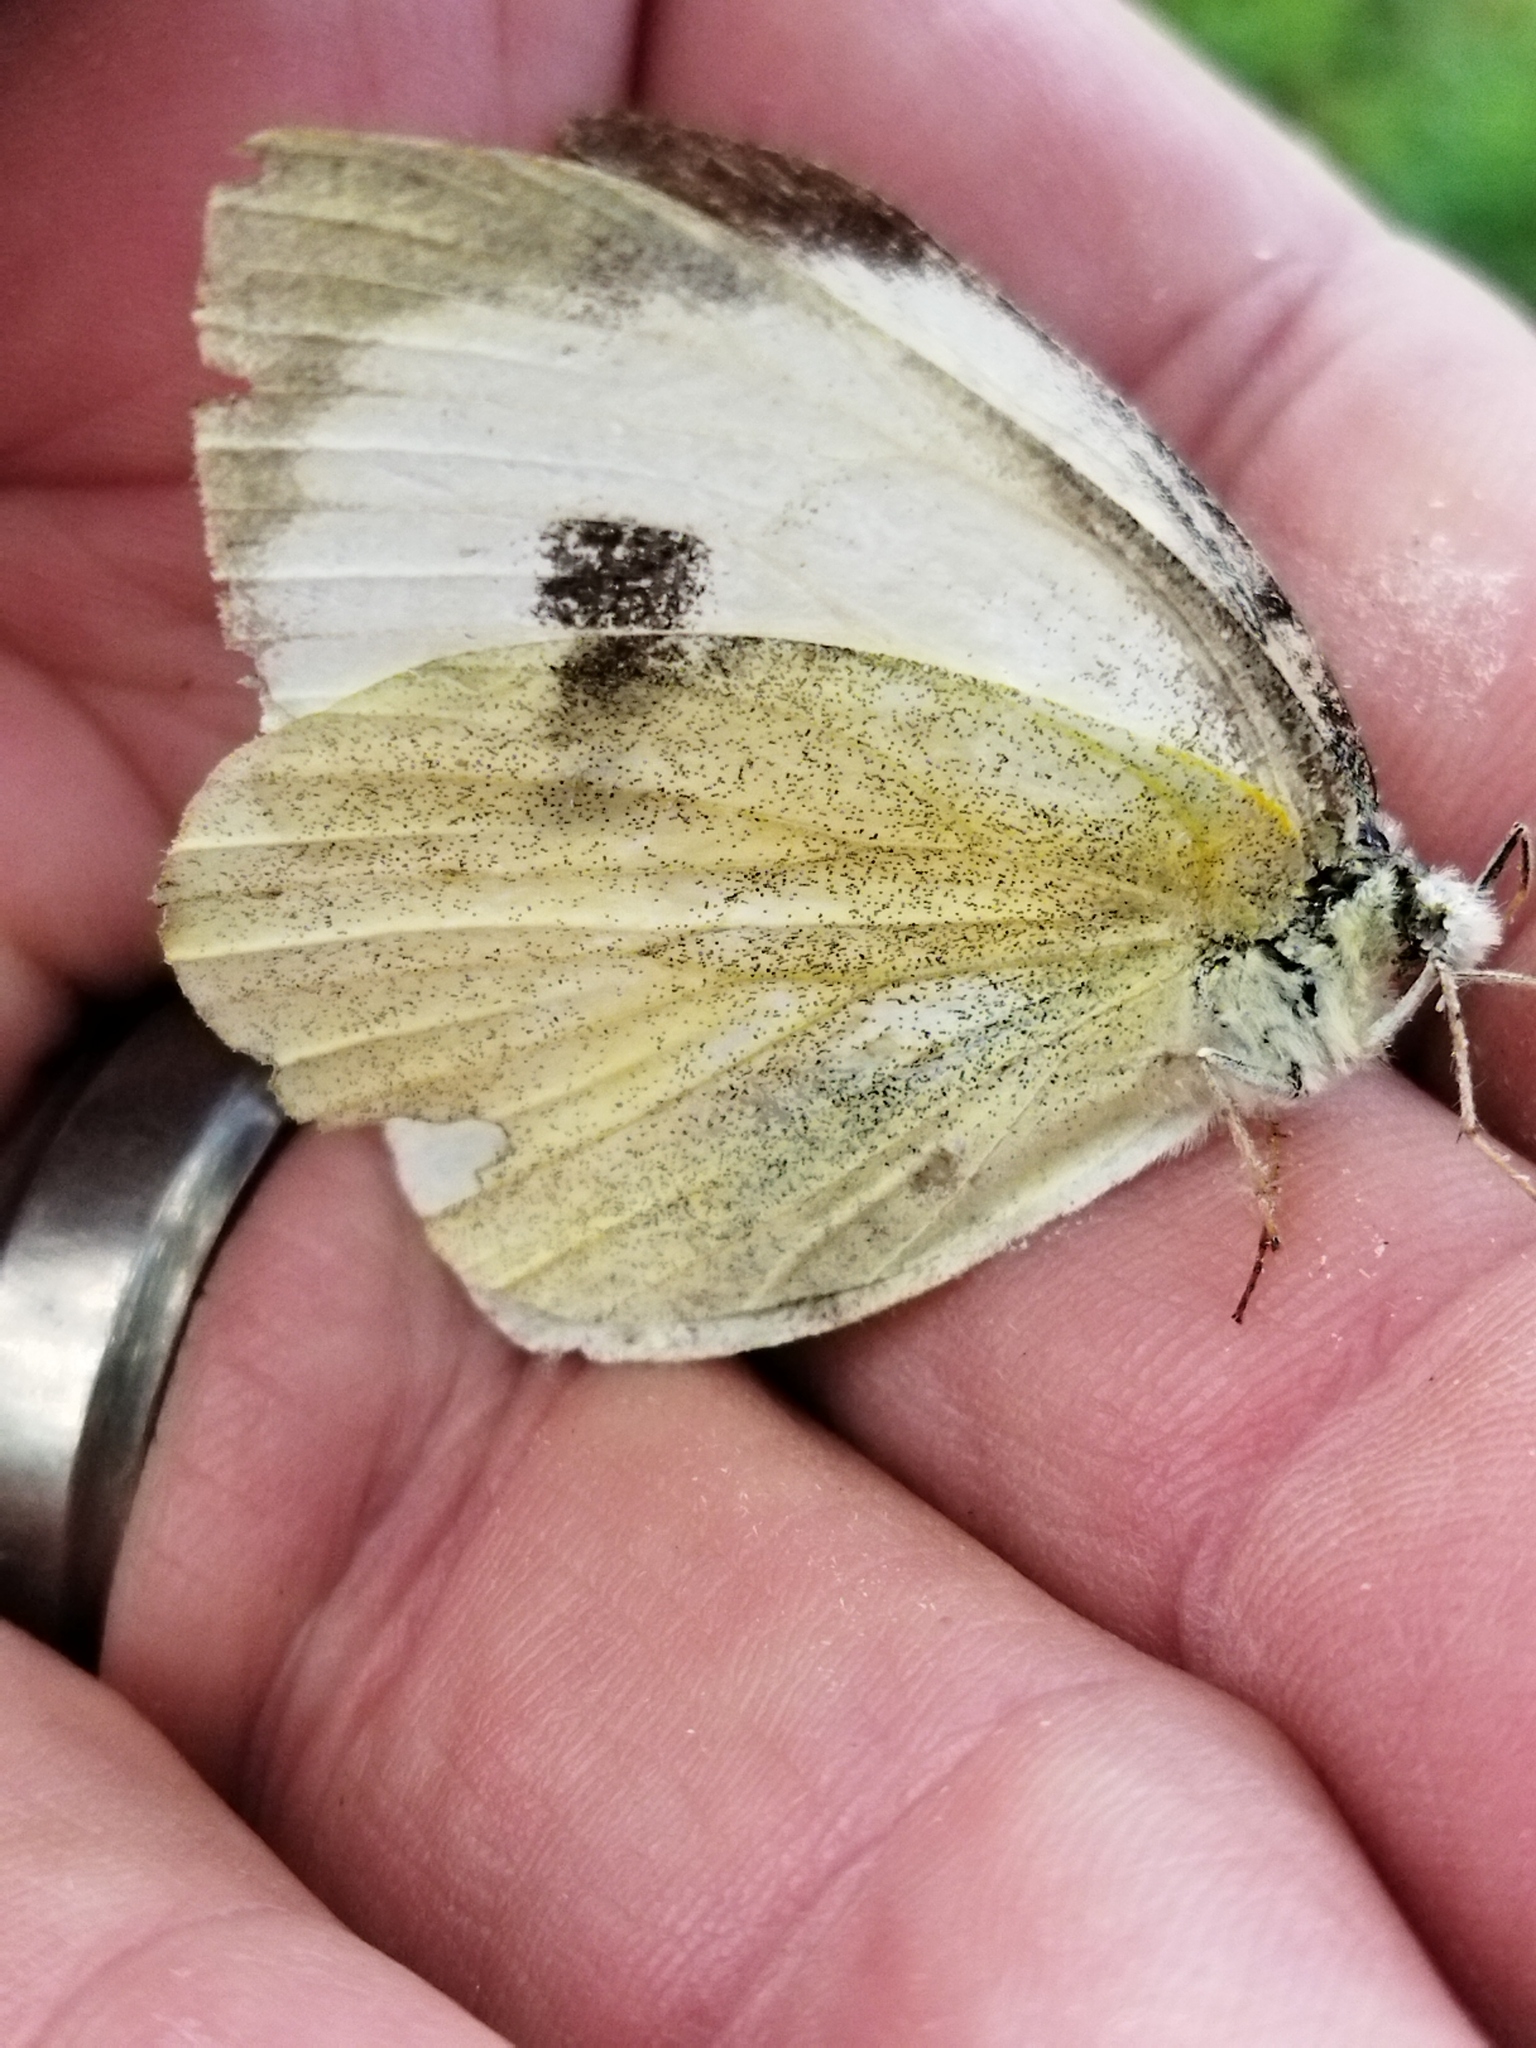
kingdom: Animalia
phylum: Arthropoda
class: Insecta
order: Lepidoptera
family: Pieridae
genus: Pieris
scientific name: Pieris brassicae
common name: Large white
